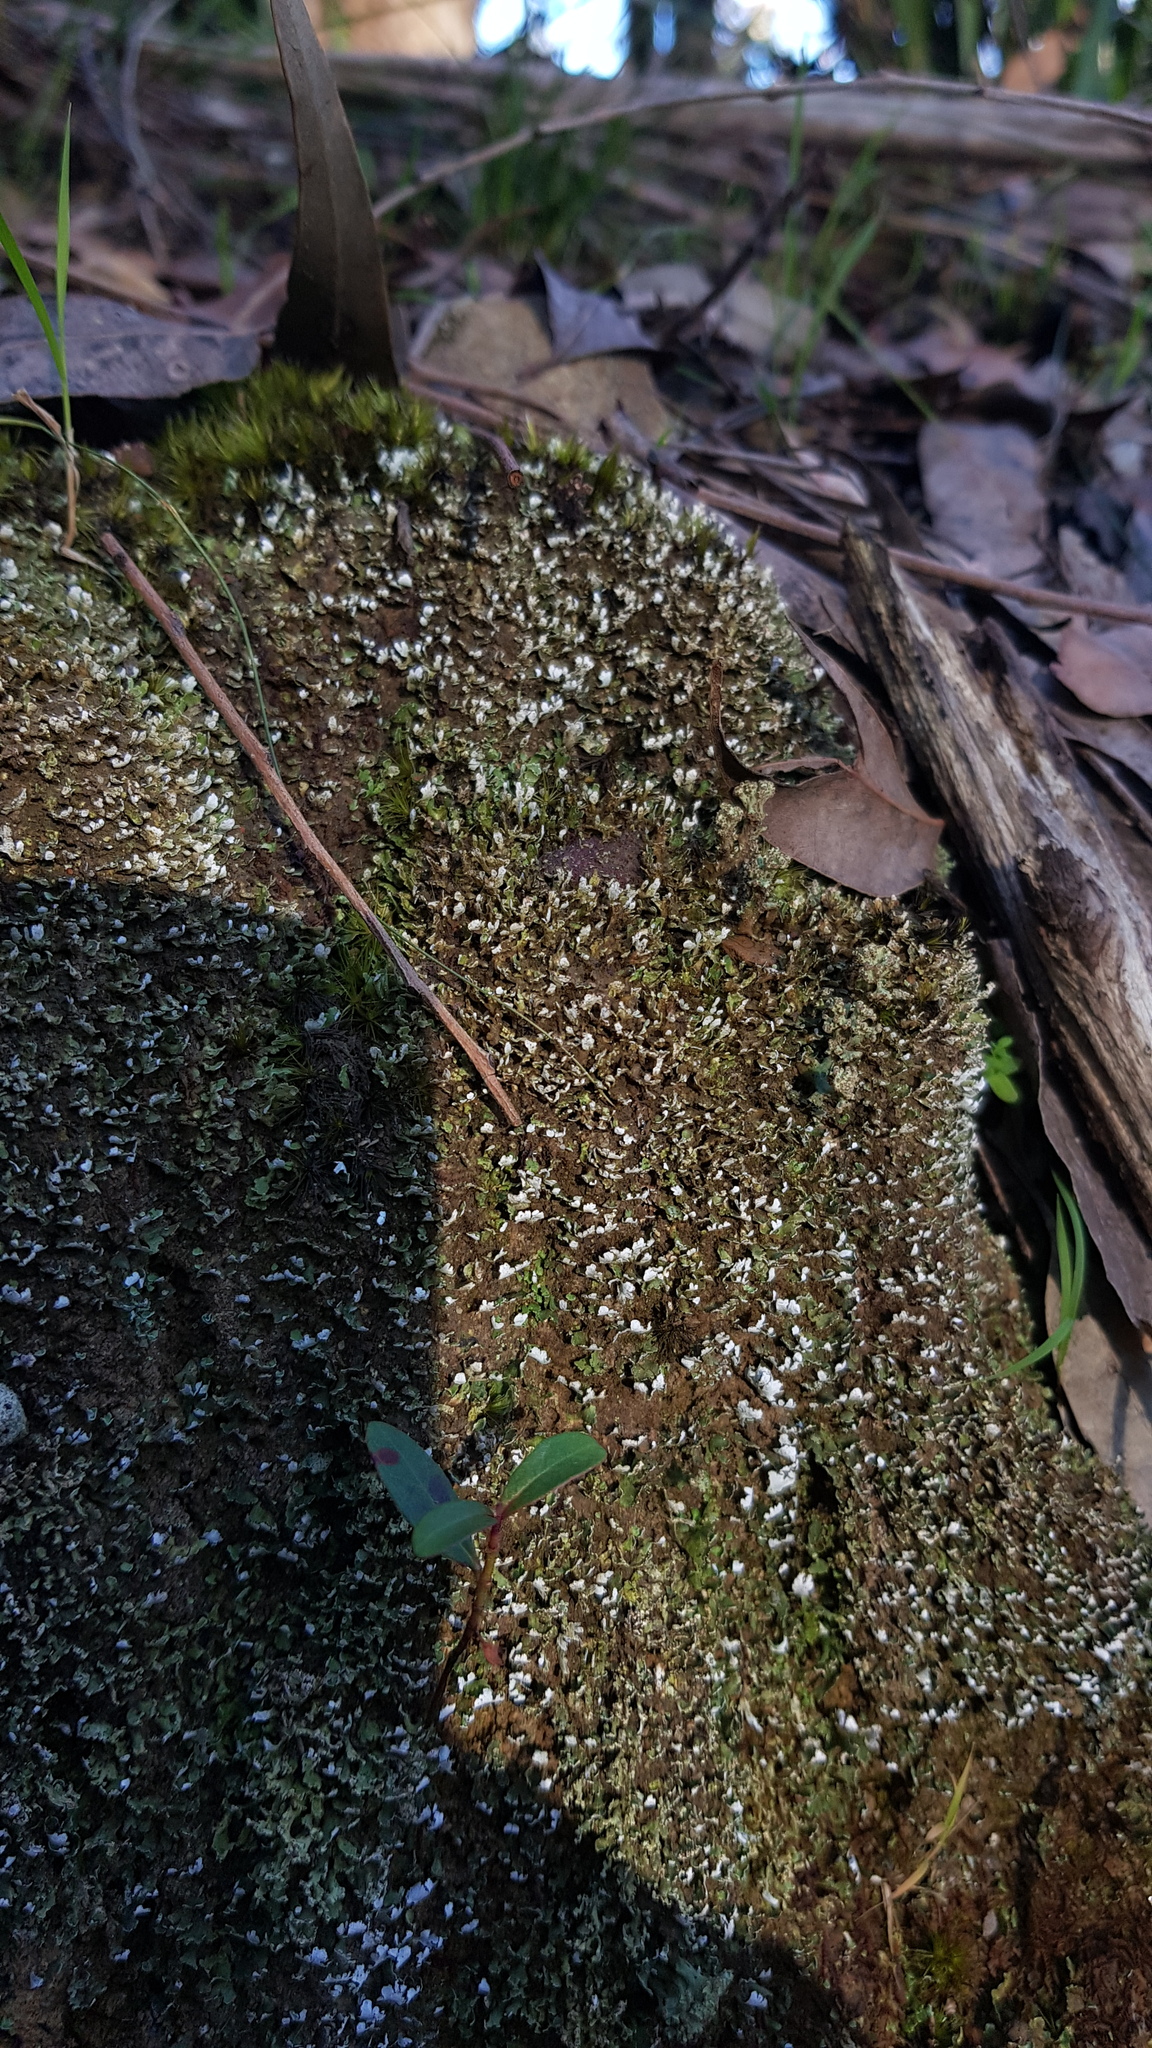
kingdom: Fungi
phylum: Ascomycota
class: Lecanoromycetes
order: Lecanorales
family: Cladoniaceae
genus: Notocladonia
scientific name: Notocladonia cochleata
